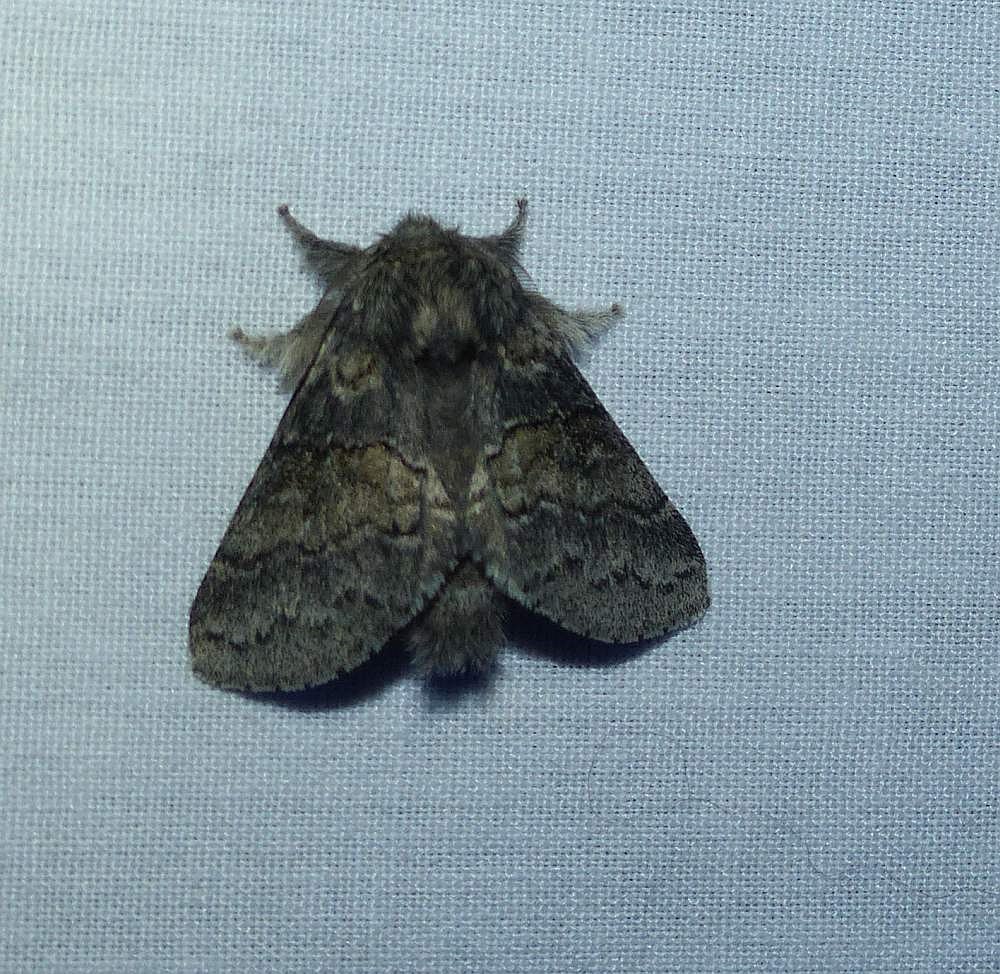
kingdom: Animalia
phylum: Arthropoda
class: Insecta
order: Lepidoptera
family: Notodontidae
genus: Gluphisia
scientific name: Gluphisia septentrionis
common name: Common gluphisia
